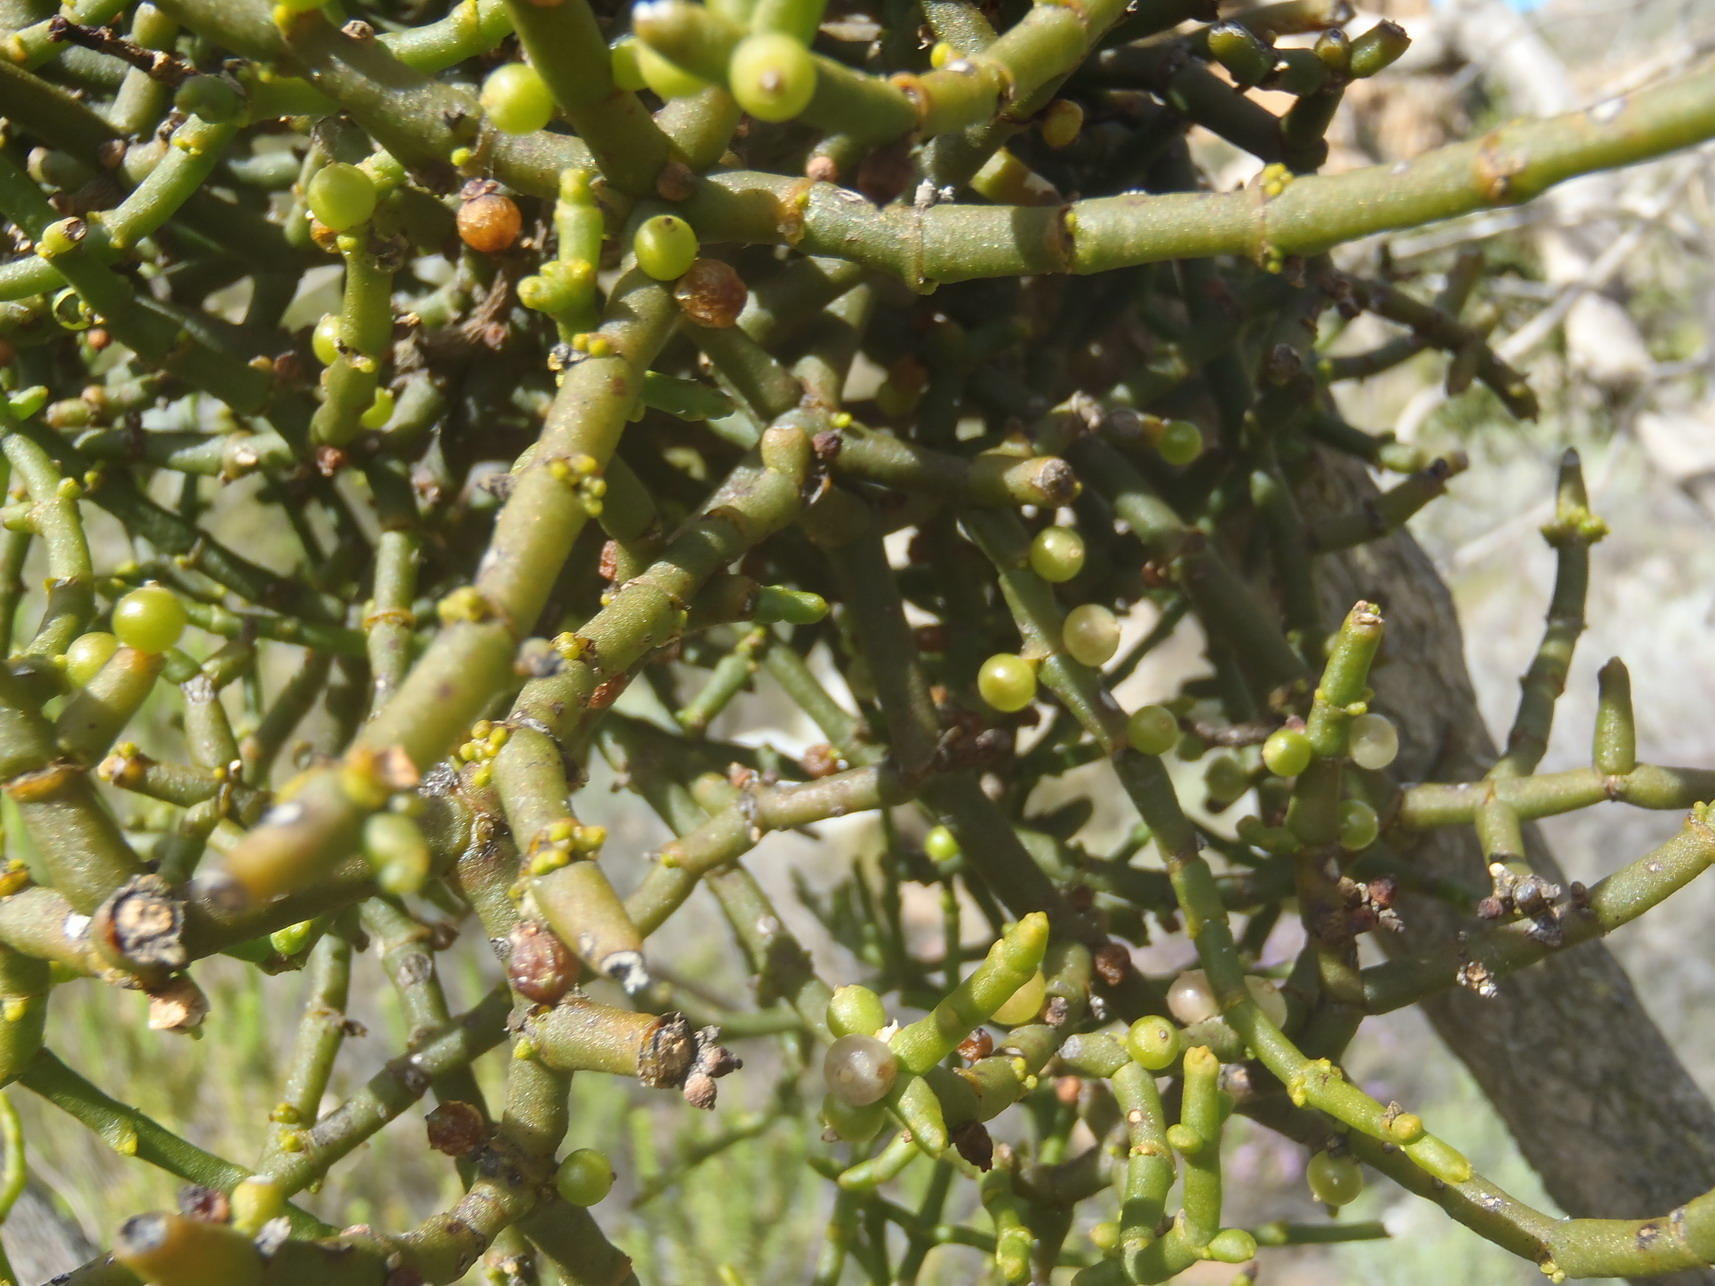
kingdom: Plantae
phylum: Tracheophyta
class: Magnoliopsida
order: Santalales
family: Viscaceae
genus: Viscum
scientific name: Viscum hoolei
